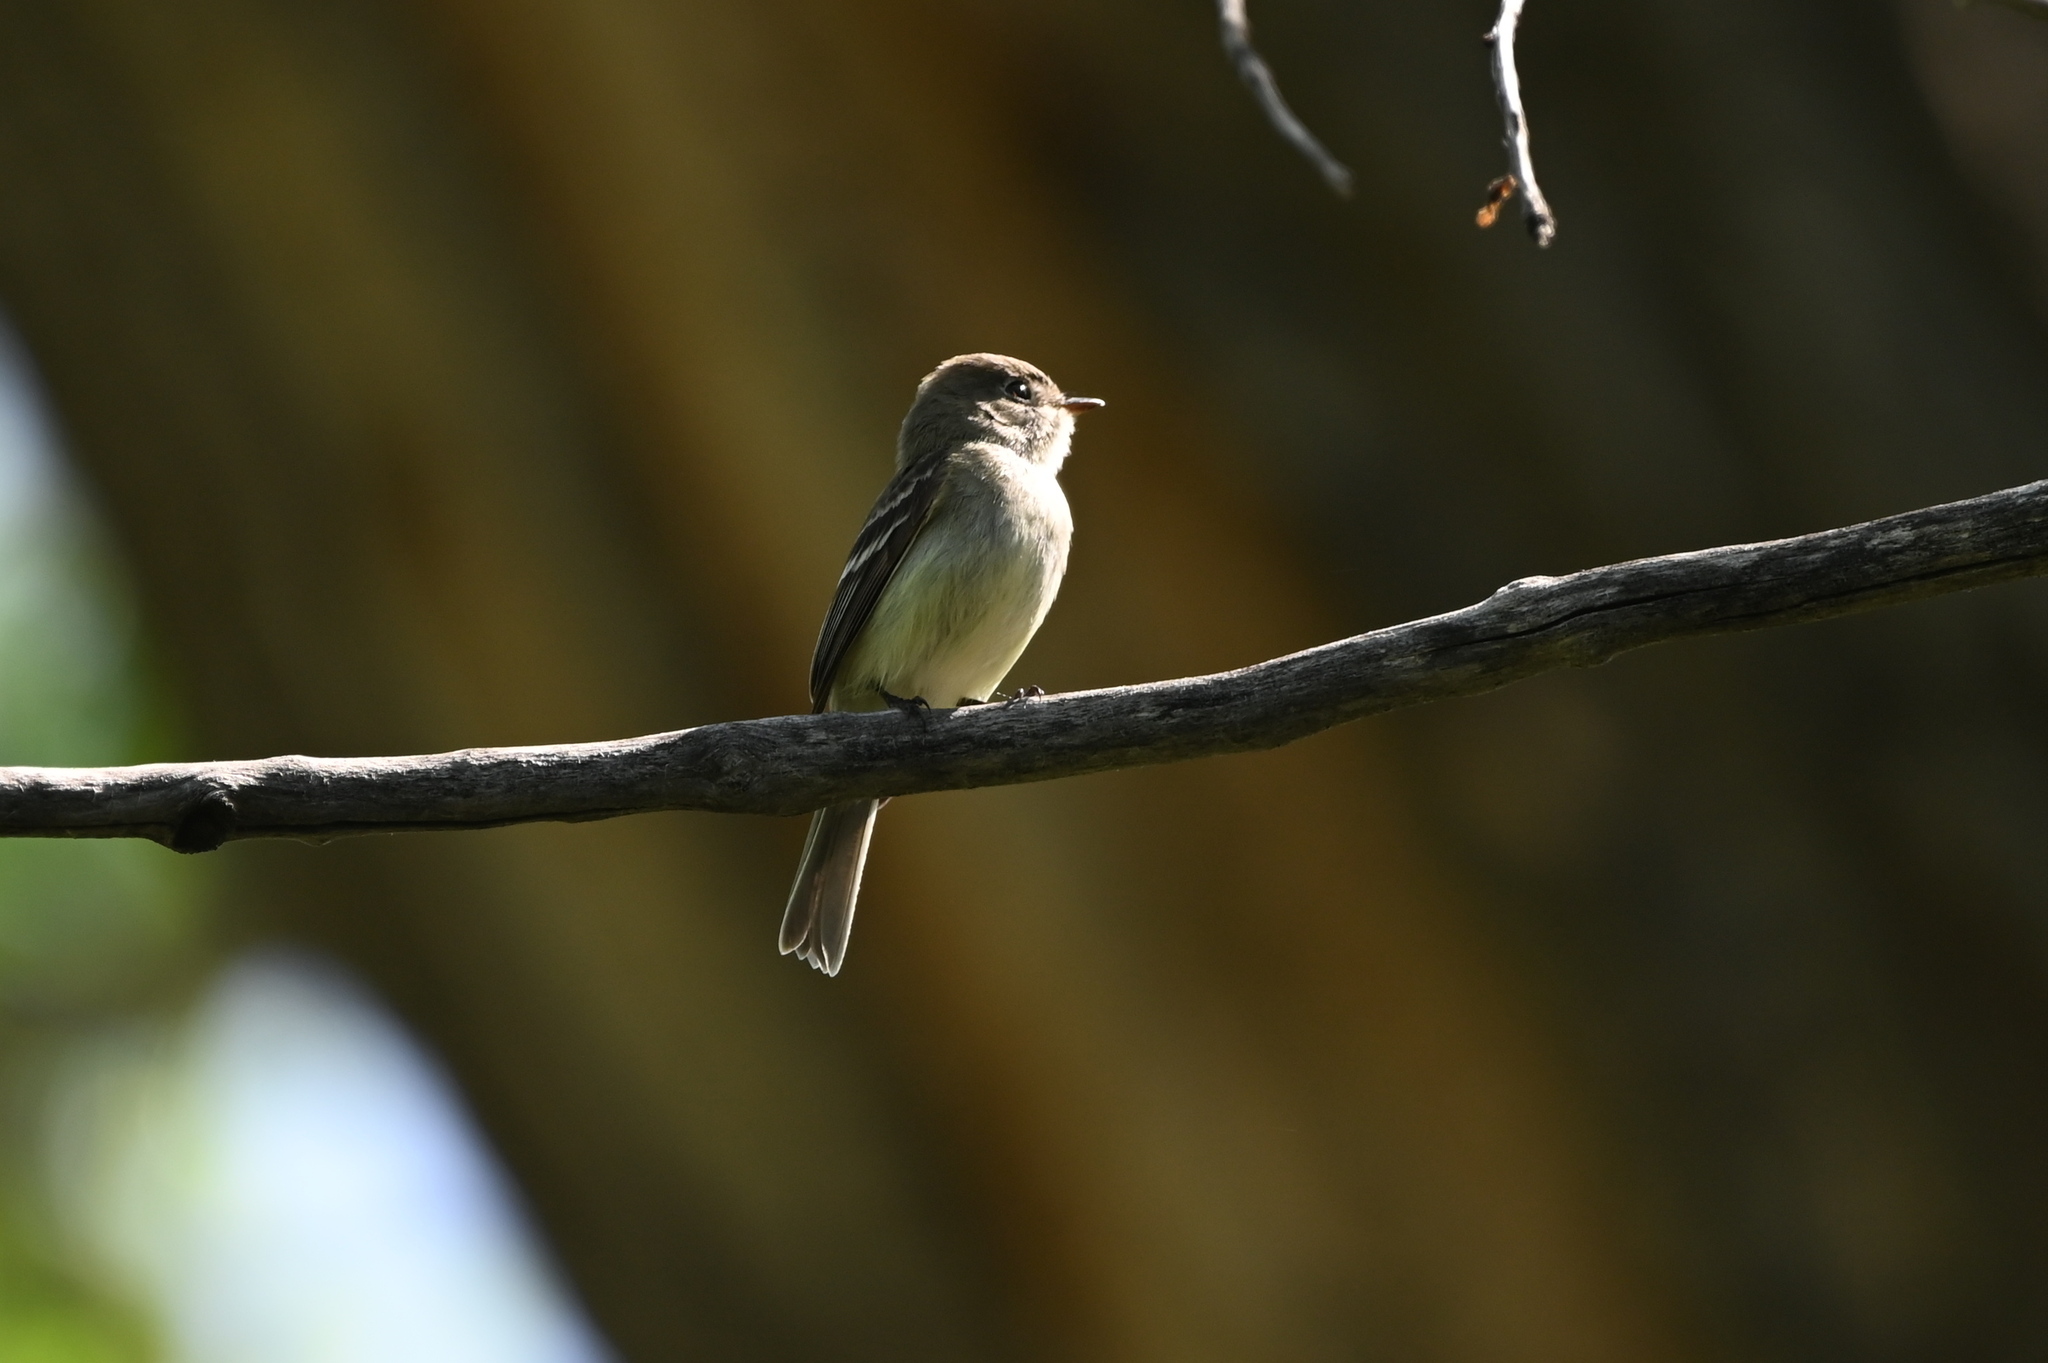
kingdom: Animalia
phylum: Chordata
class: Aves
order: Passeriformes
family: Tyrannidae
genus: Empidonax
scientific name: Empidonax minimus
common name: Least flycatcher
